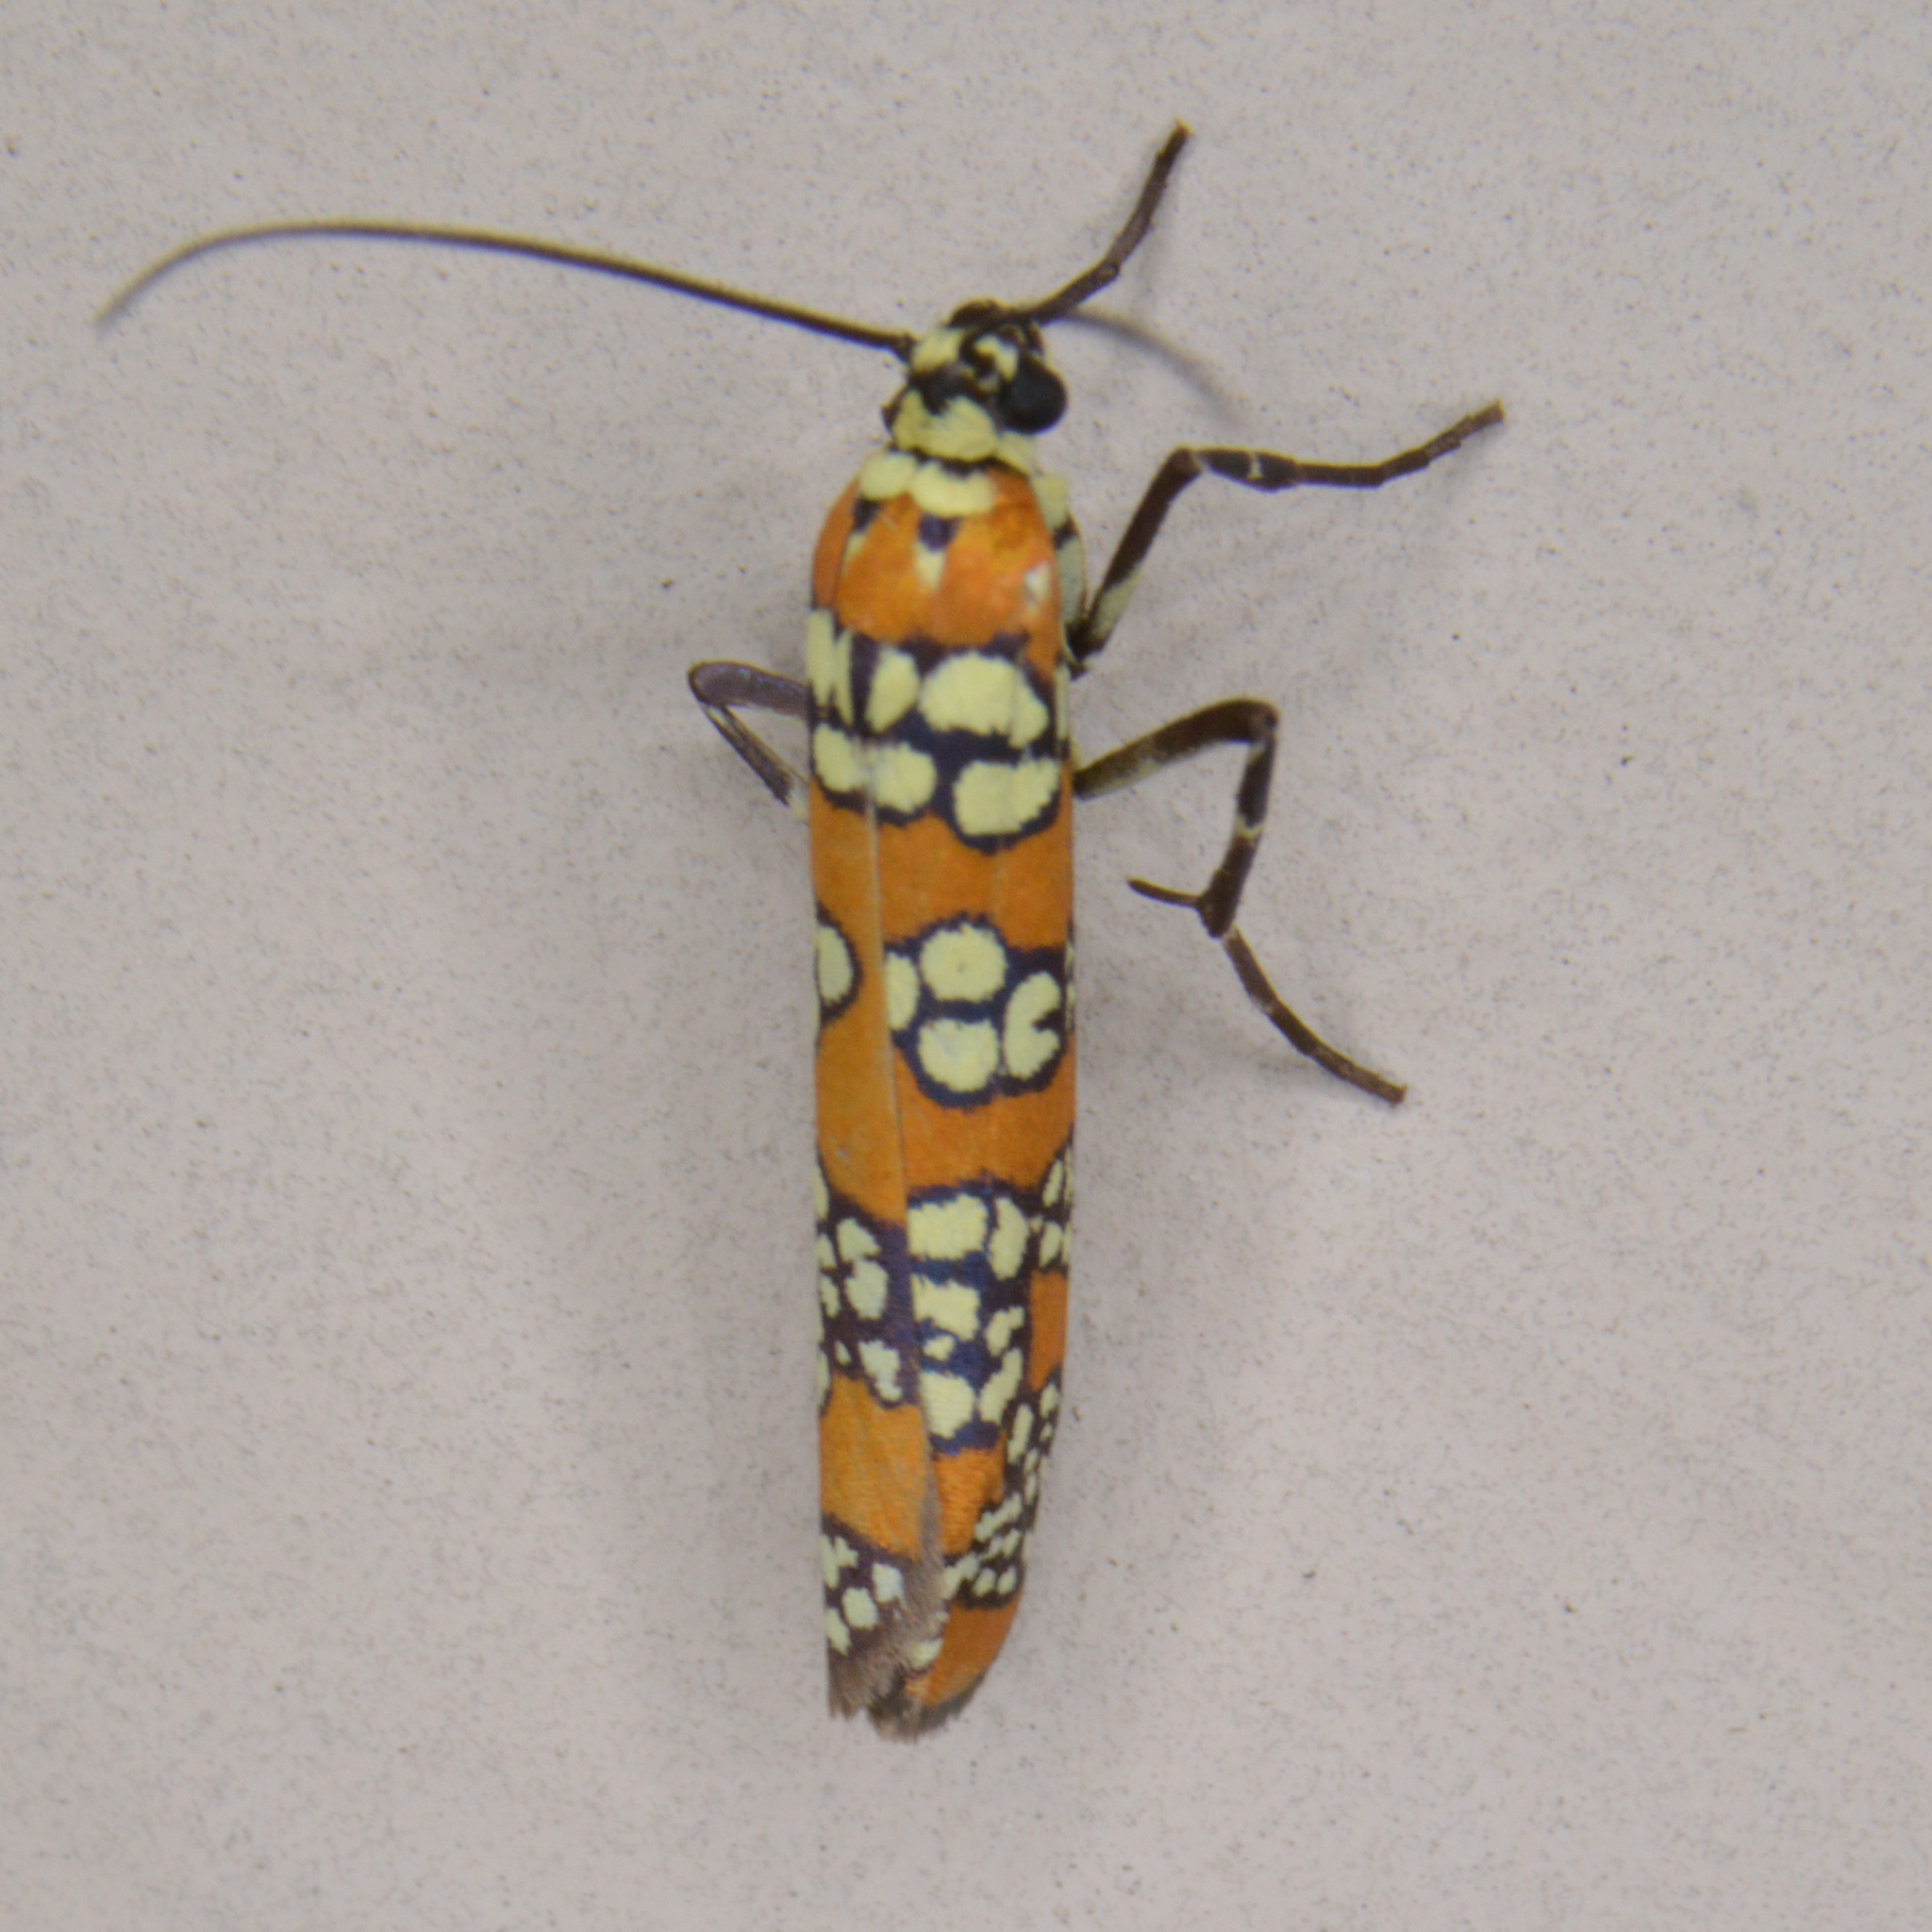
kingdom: Animalia
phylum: Arthropoda
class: Insecta
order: Lepidoptera
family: Attevidae
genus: Atteva
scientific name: Atteva punctella
